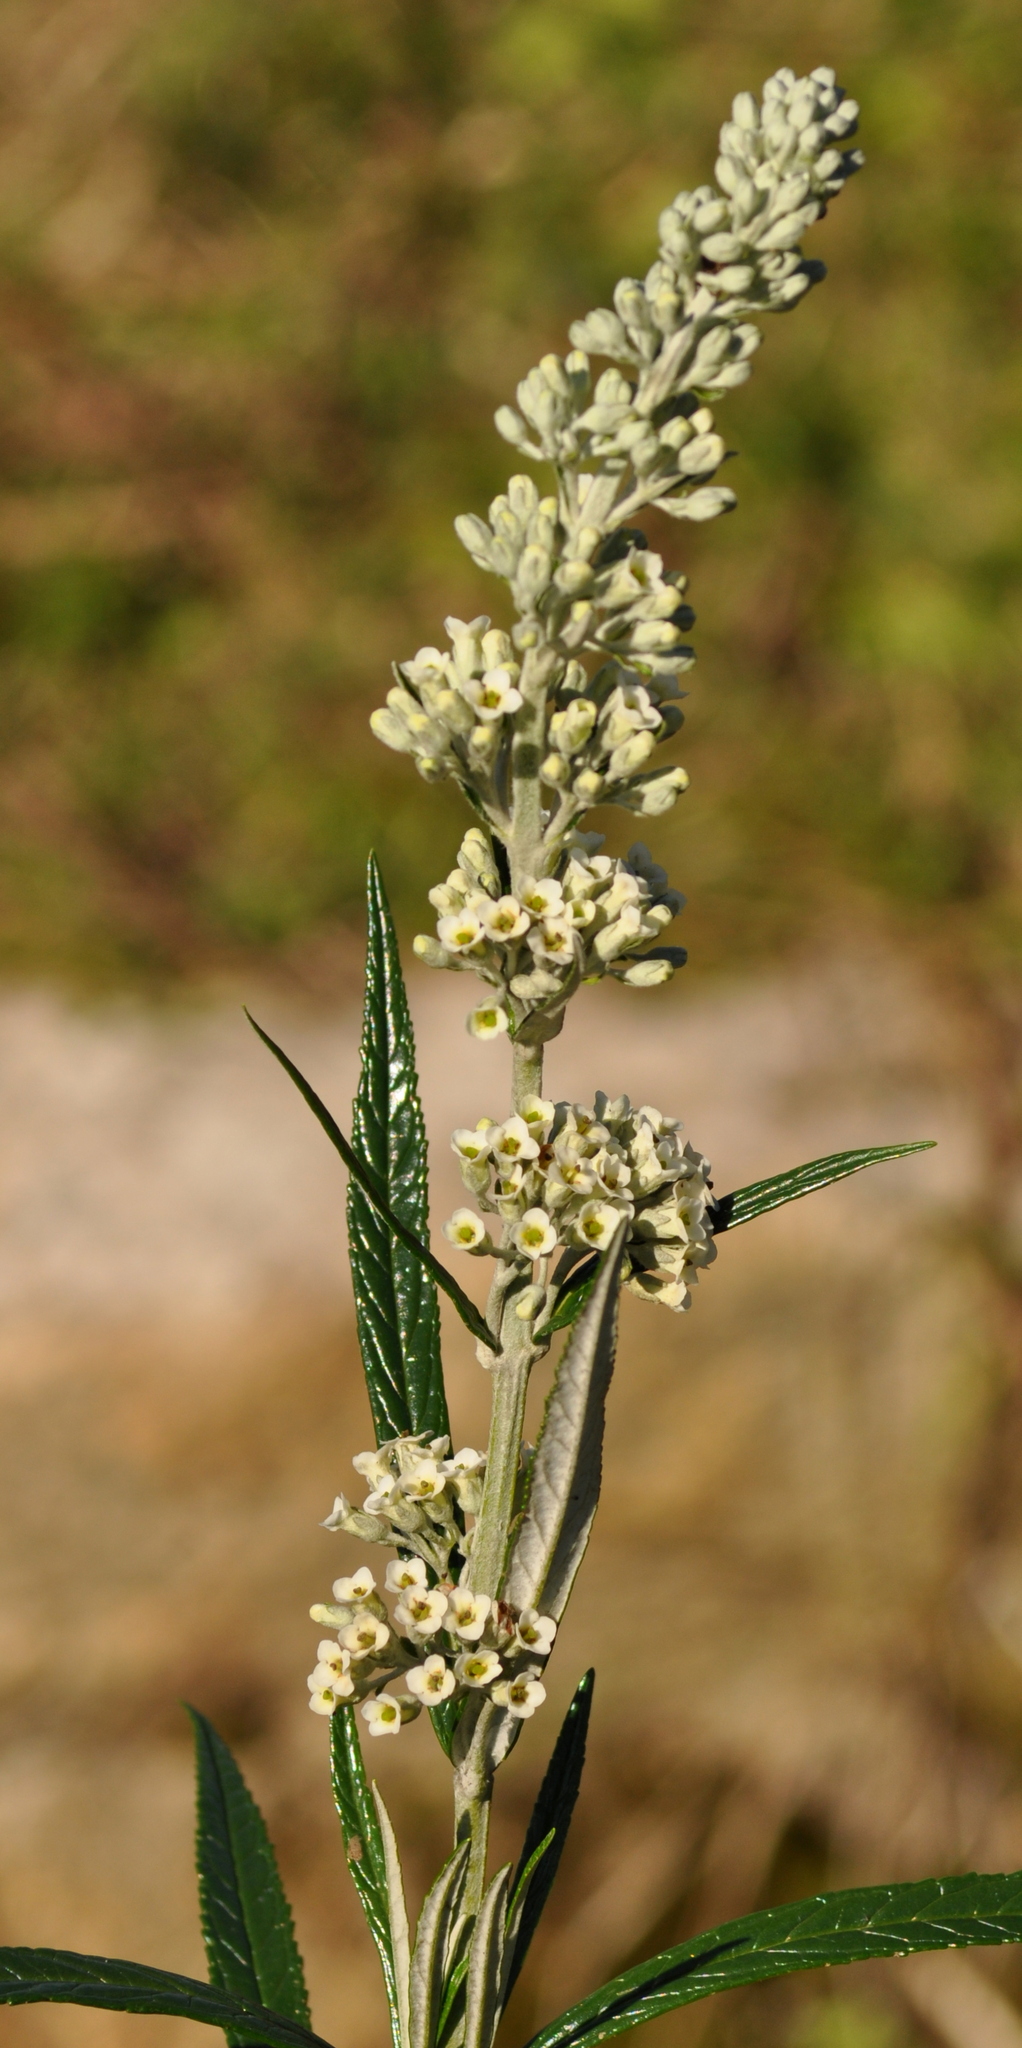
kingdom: Plantae
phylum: Tracheophyta
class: Magnoliopsida
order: Lamiales
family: Scrophulariaceae
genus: Buddleja
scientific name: Buddleja thyrsoides
